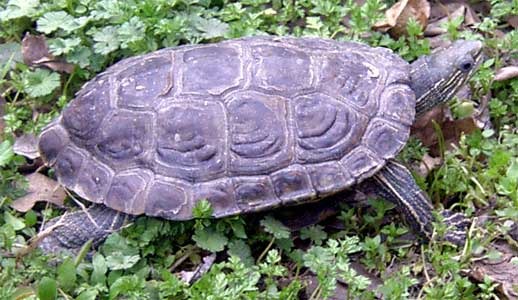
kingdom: Animalia
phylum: Chordata
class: Testudines
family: Geoemydidae
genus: Mauremys
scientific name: Mauremys caspica
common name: Caspian turtle
